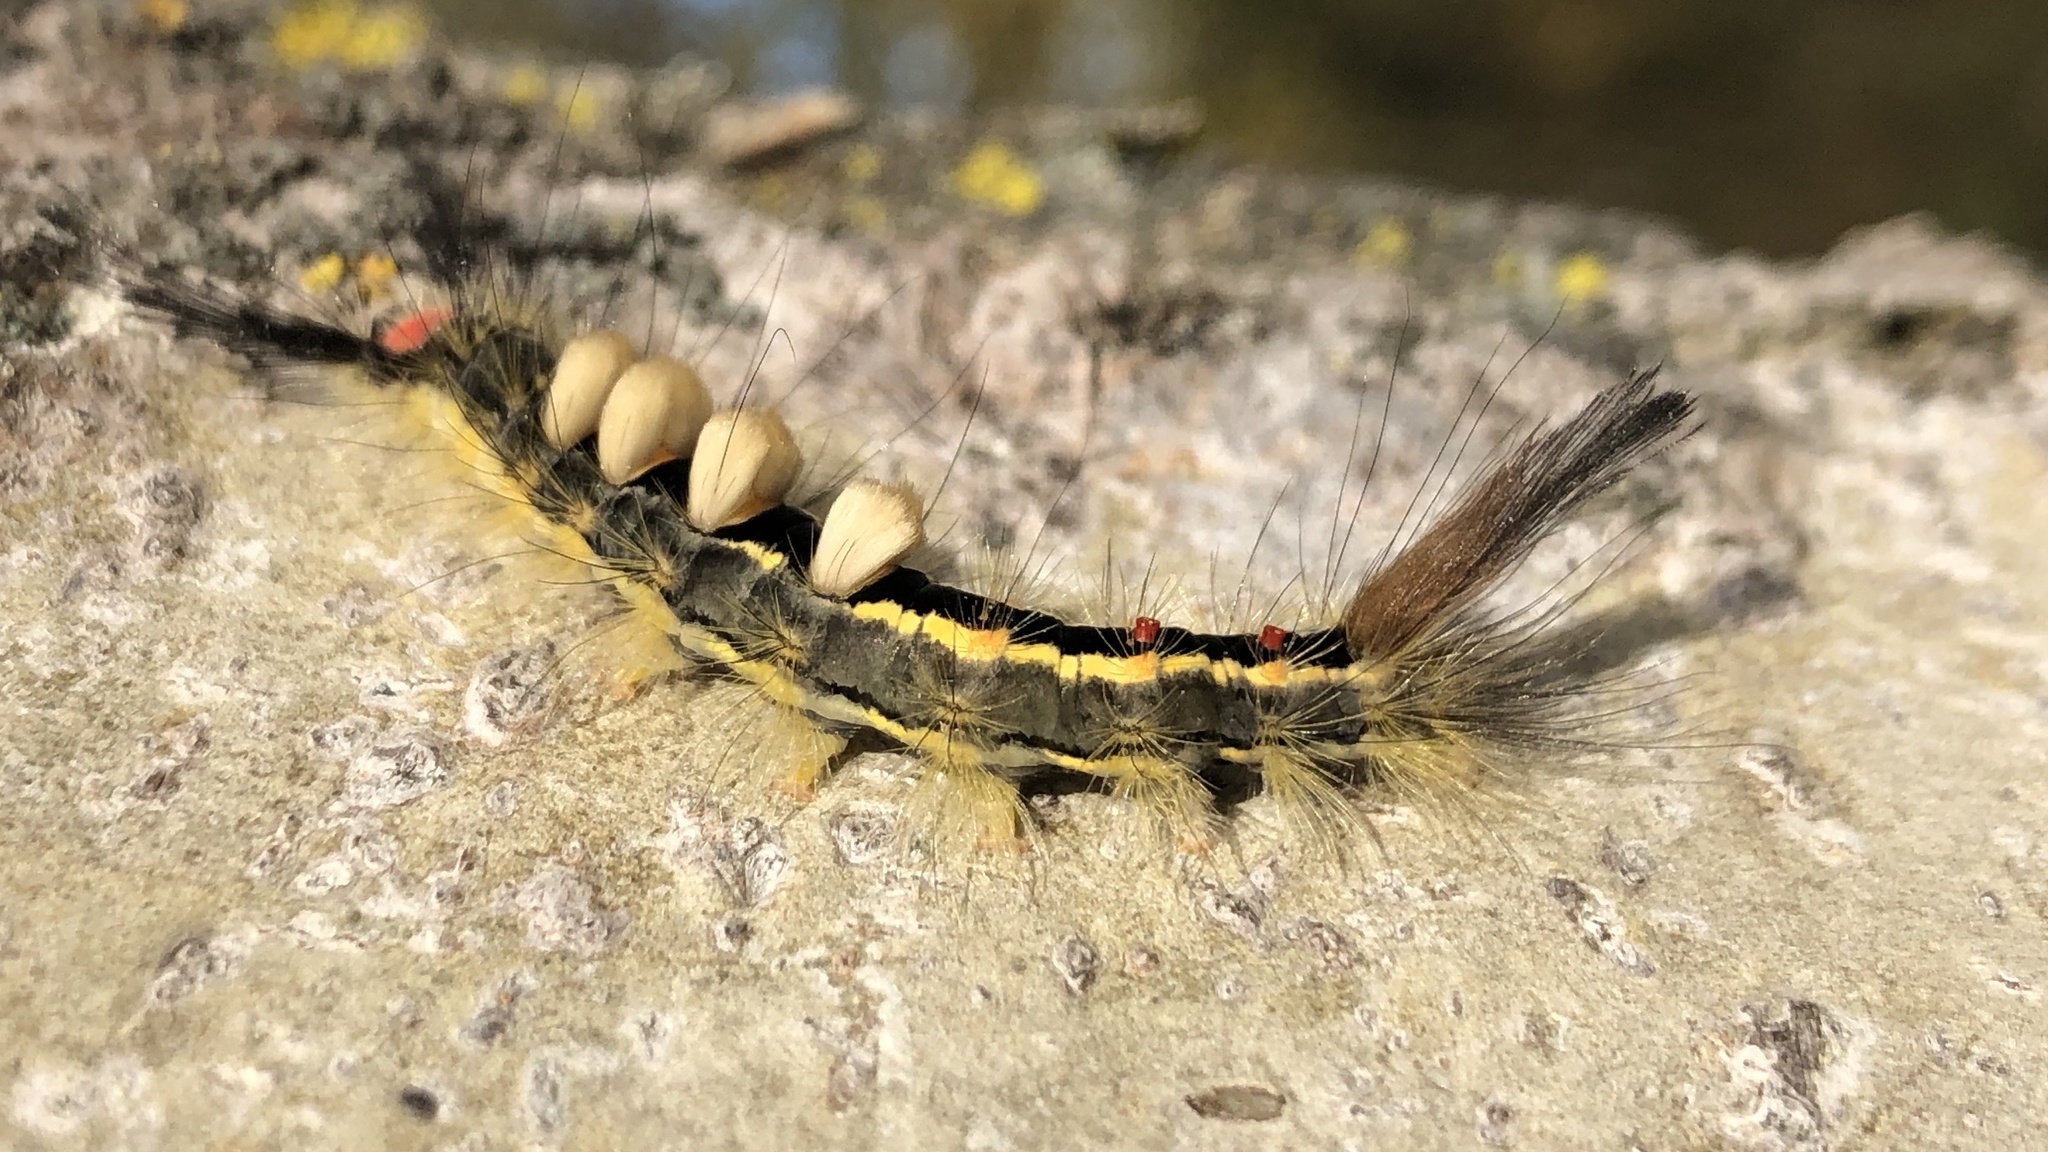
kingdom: Animalia
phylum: Arthropoda
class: Insecta
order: Lepidoptera
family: Erebidae
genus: Orgyia
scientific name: Orgyia leucostigma
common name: White-marked tussock moth
